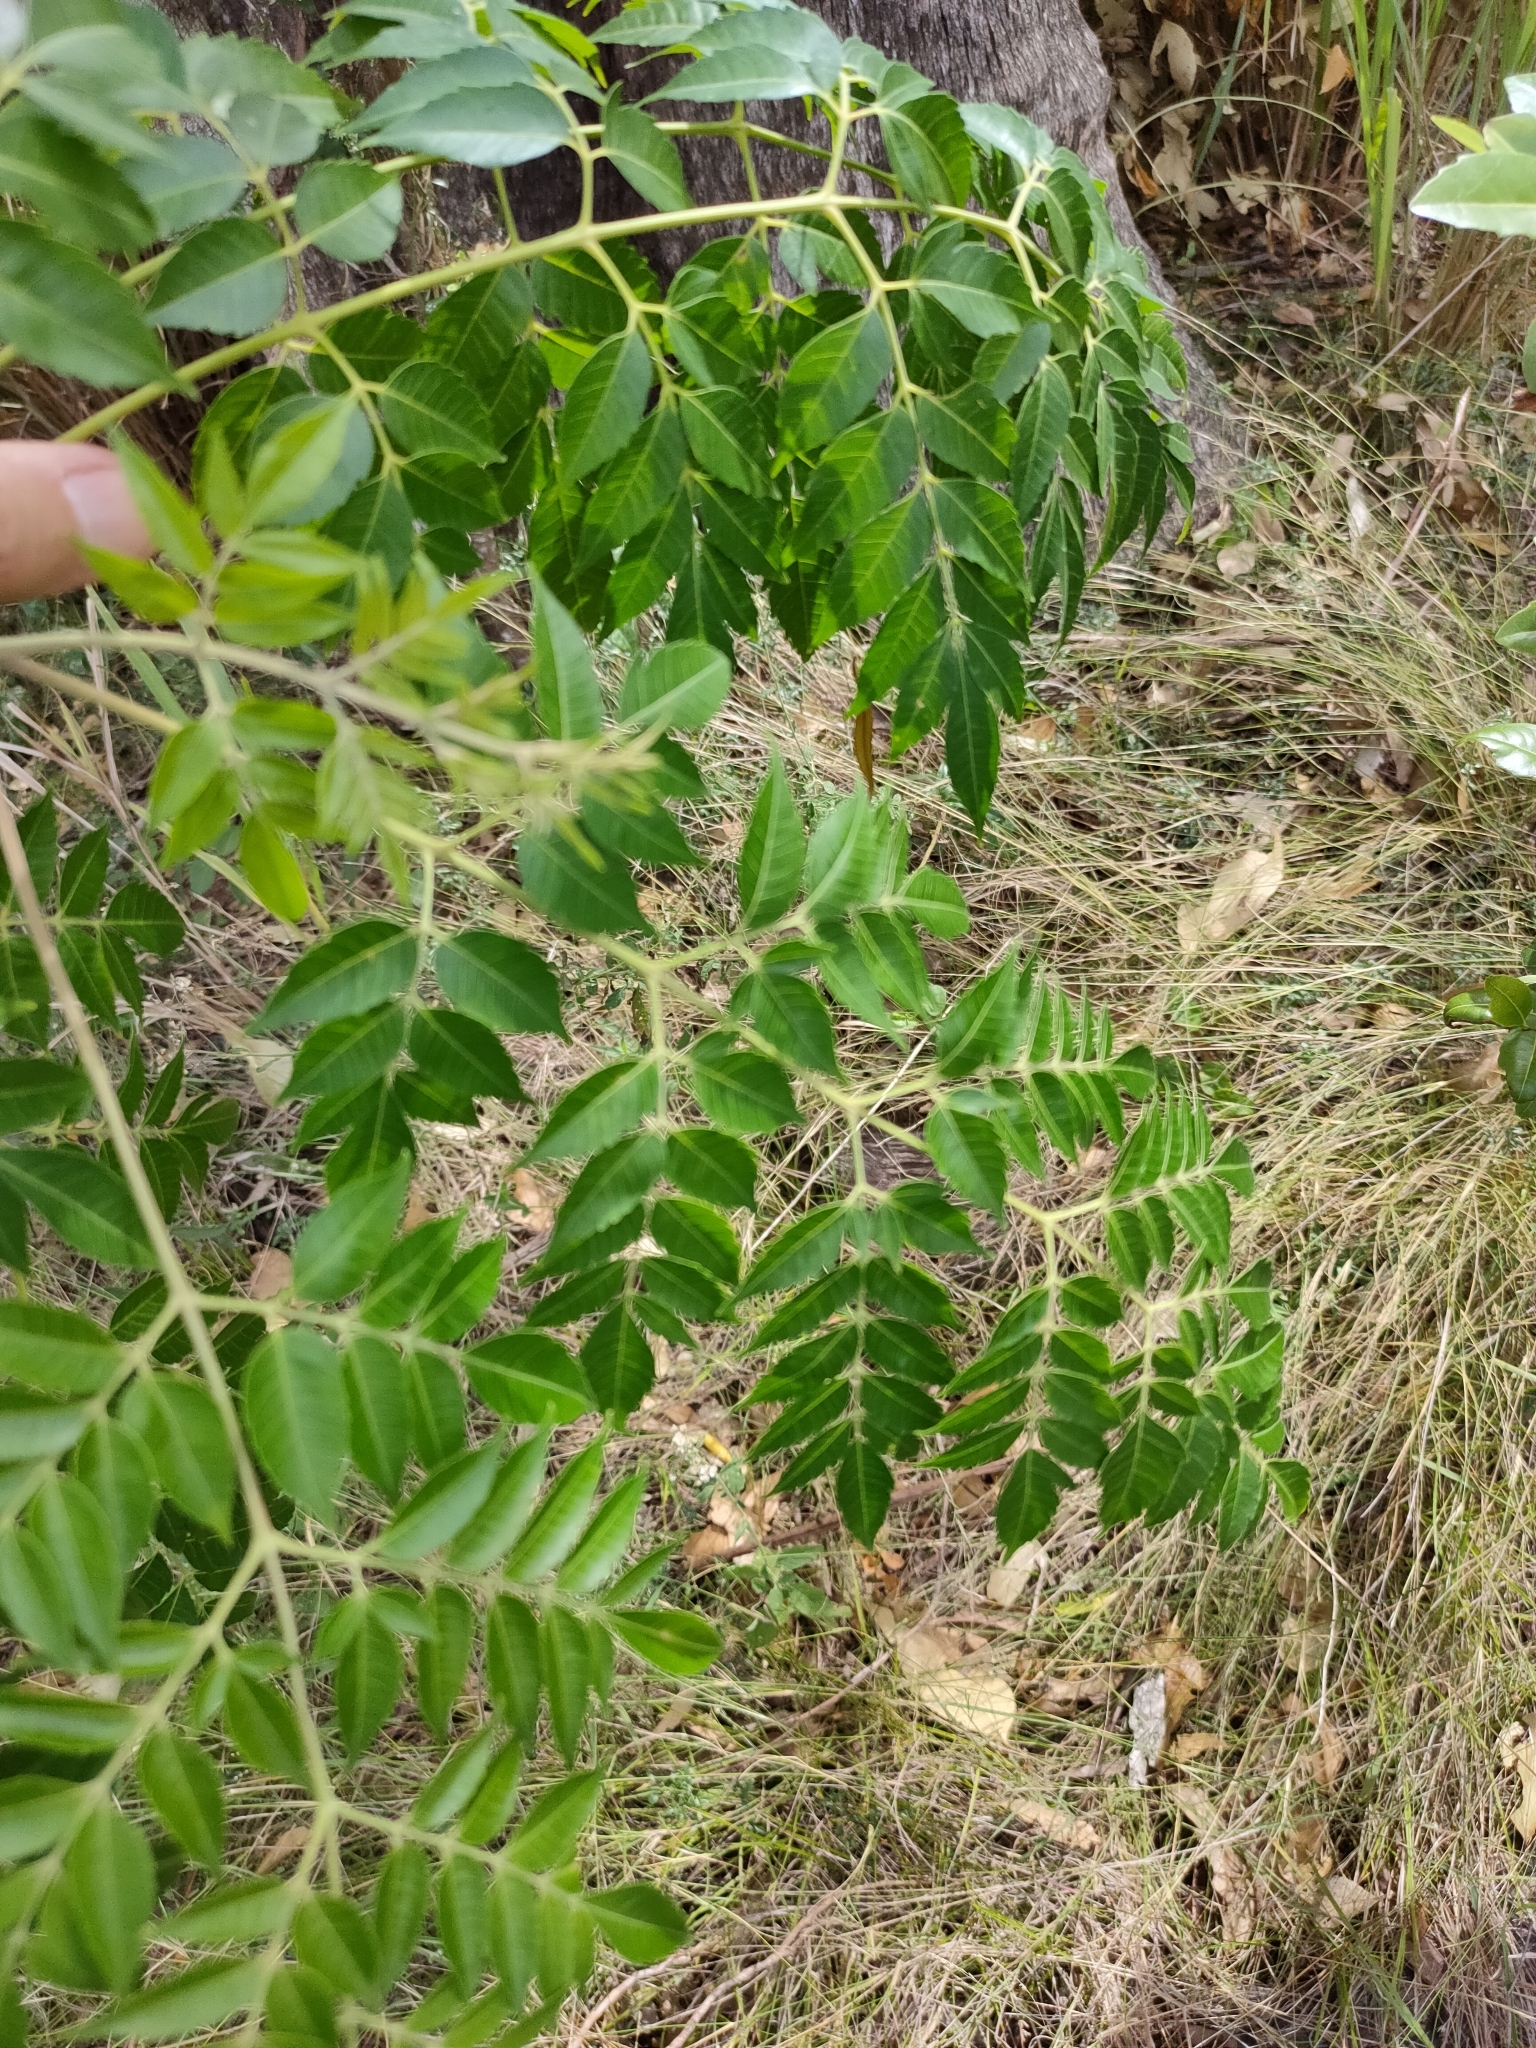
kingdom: Plantae
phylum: Tracheophyta
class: Magnoliopsida
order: Sapindales
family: Meliaceae
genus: Melia
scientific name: Melia azedarach
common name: Chinaberrytree
